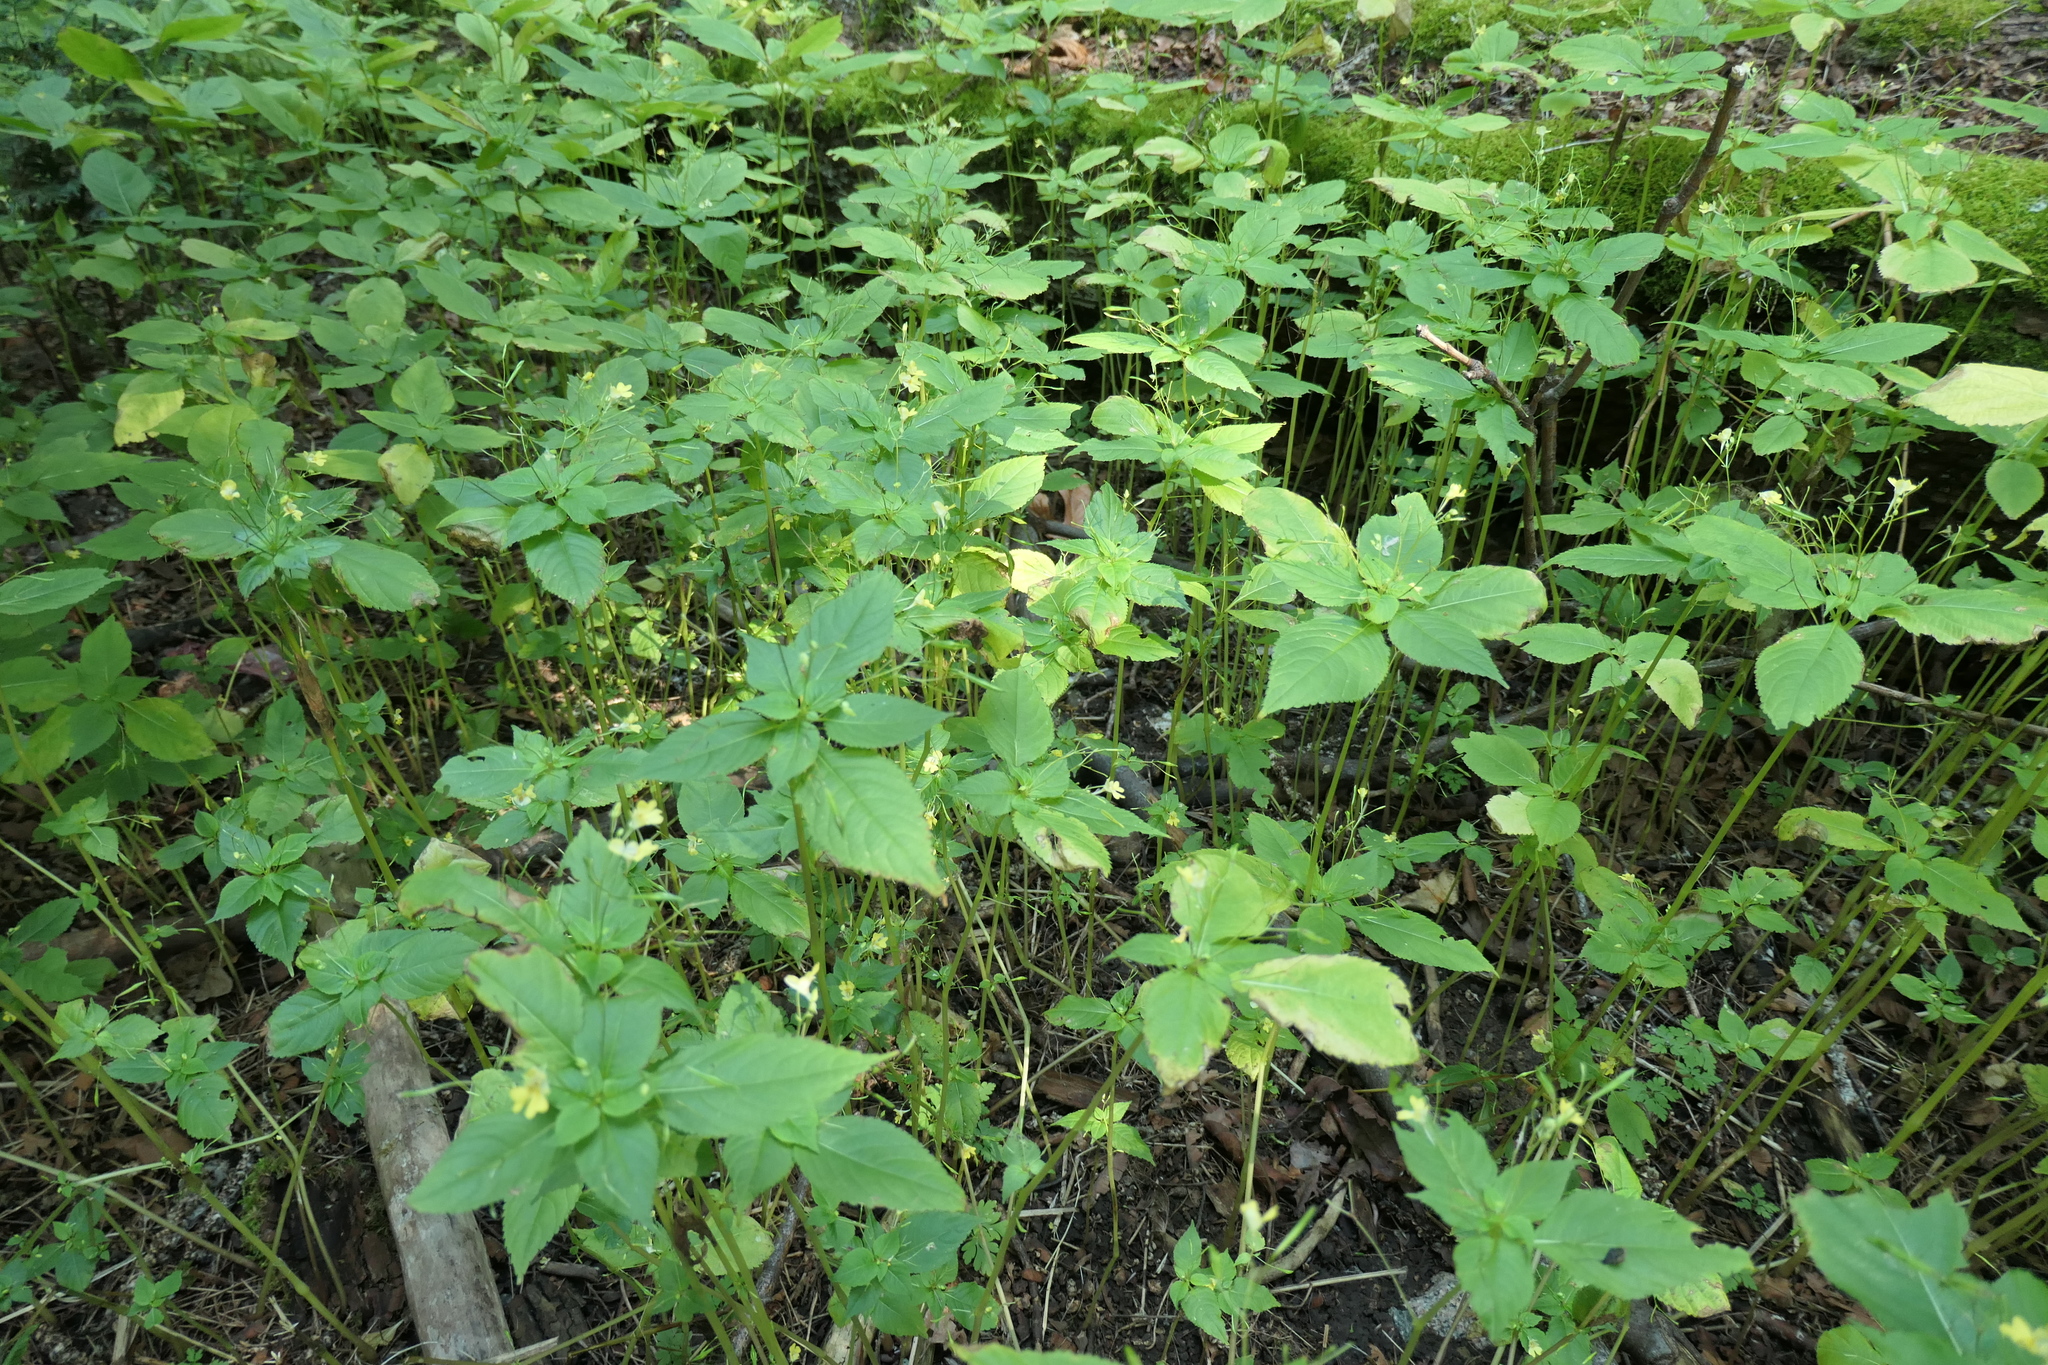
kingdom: Plantae
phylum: Tracheophyta
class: Magnoliopsida
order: Ericales
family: Balsaminaceae
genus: Impatiens
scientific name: Impatiens parviflora
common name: Small balsam
